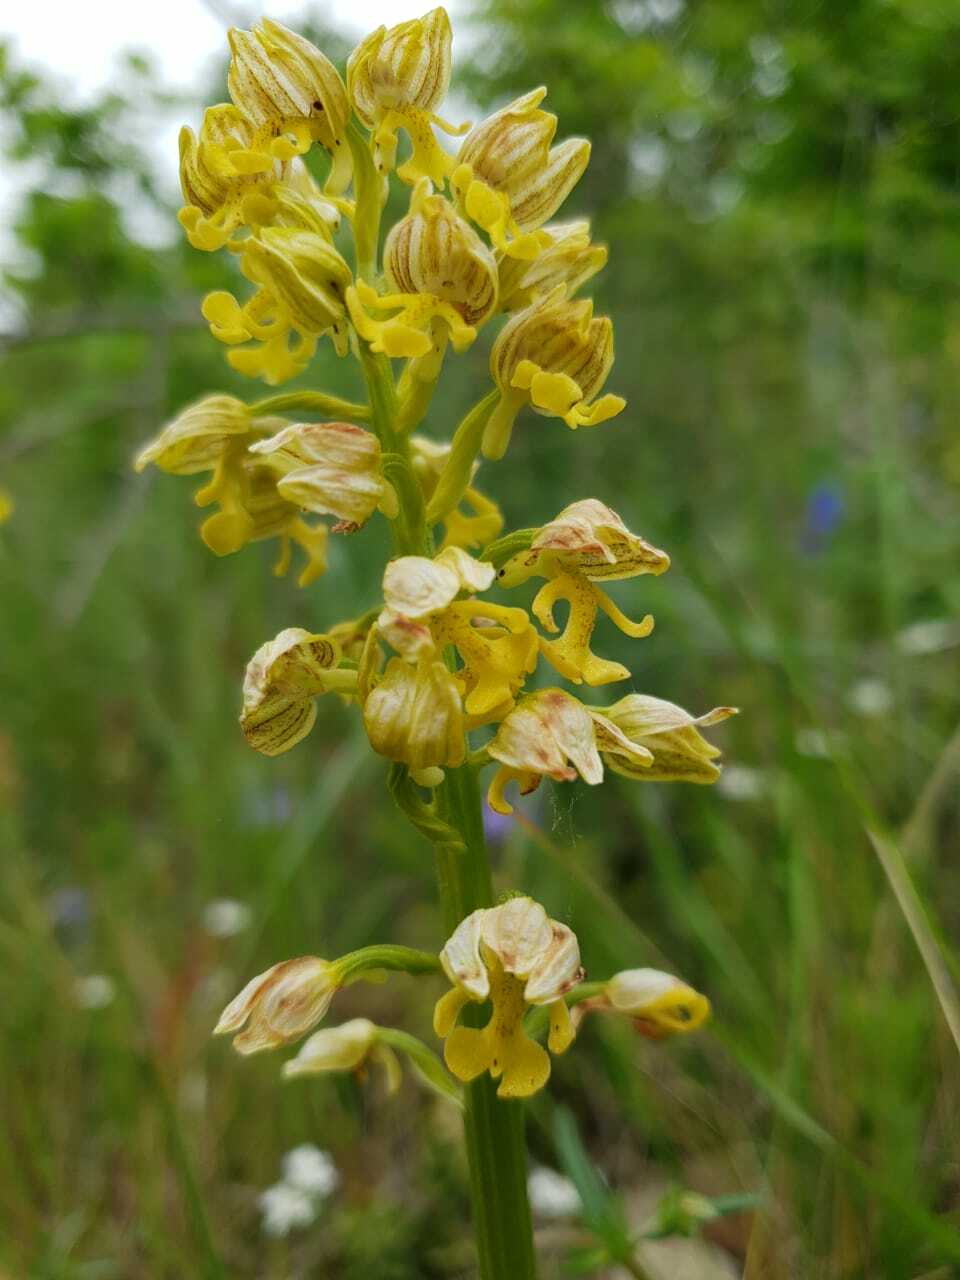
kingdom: Plantae
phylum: Tracheophyta
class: Liliopsida
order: Asparagales
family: Orchidaceae
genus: Orchis
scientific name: Orchis punctulata
